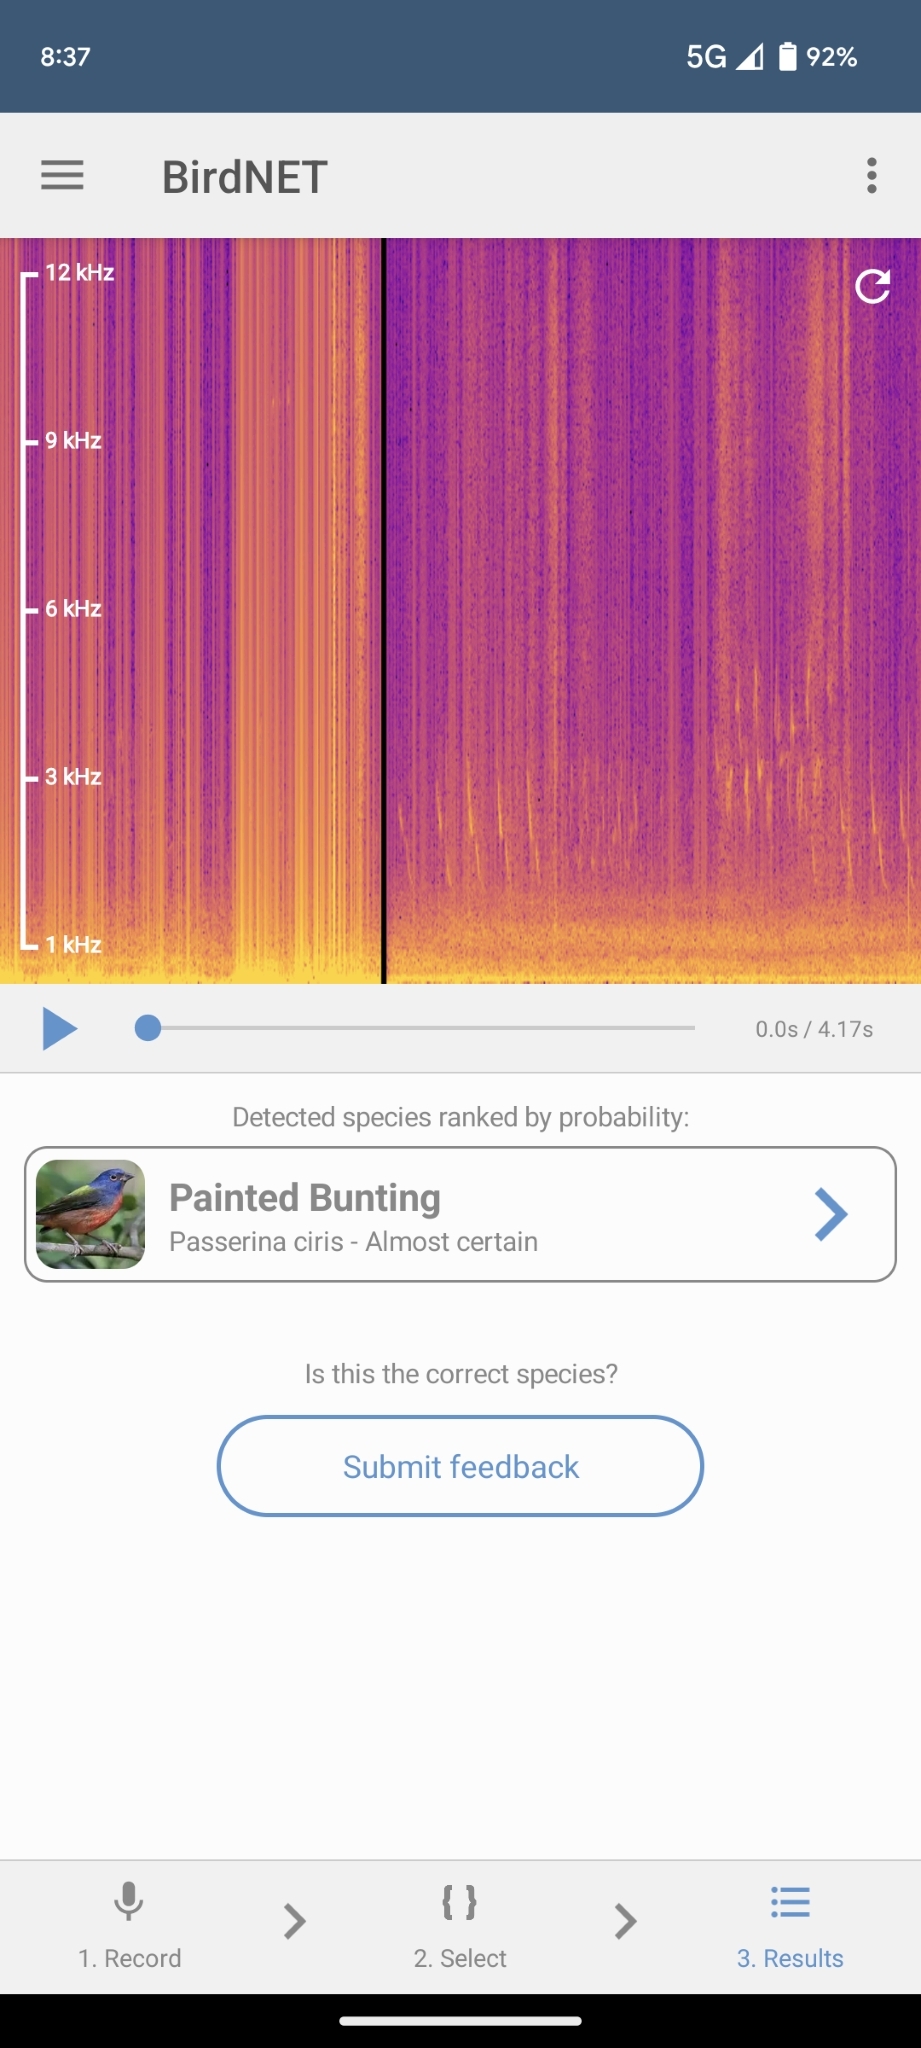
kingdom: Animalia
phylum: Chordata
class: Aves
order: Passeriformes
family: Cardinalidae
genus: Passerina
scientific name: Passerina ciris
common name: Painted bunting
